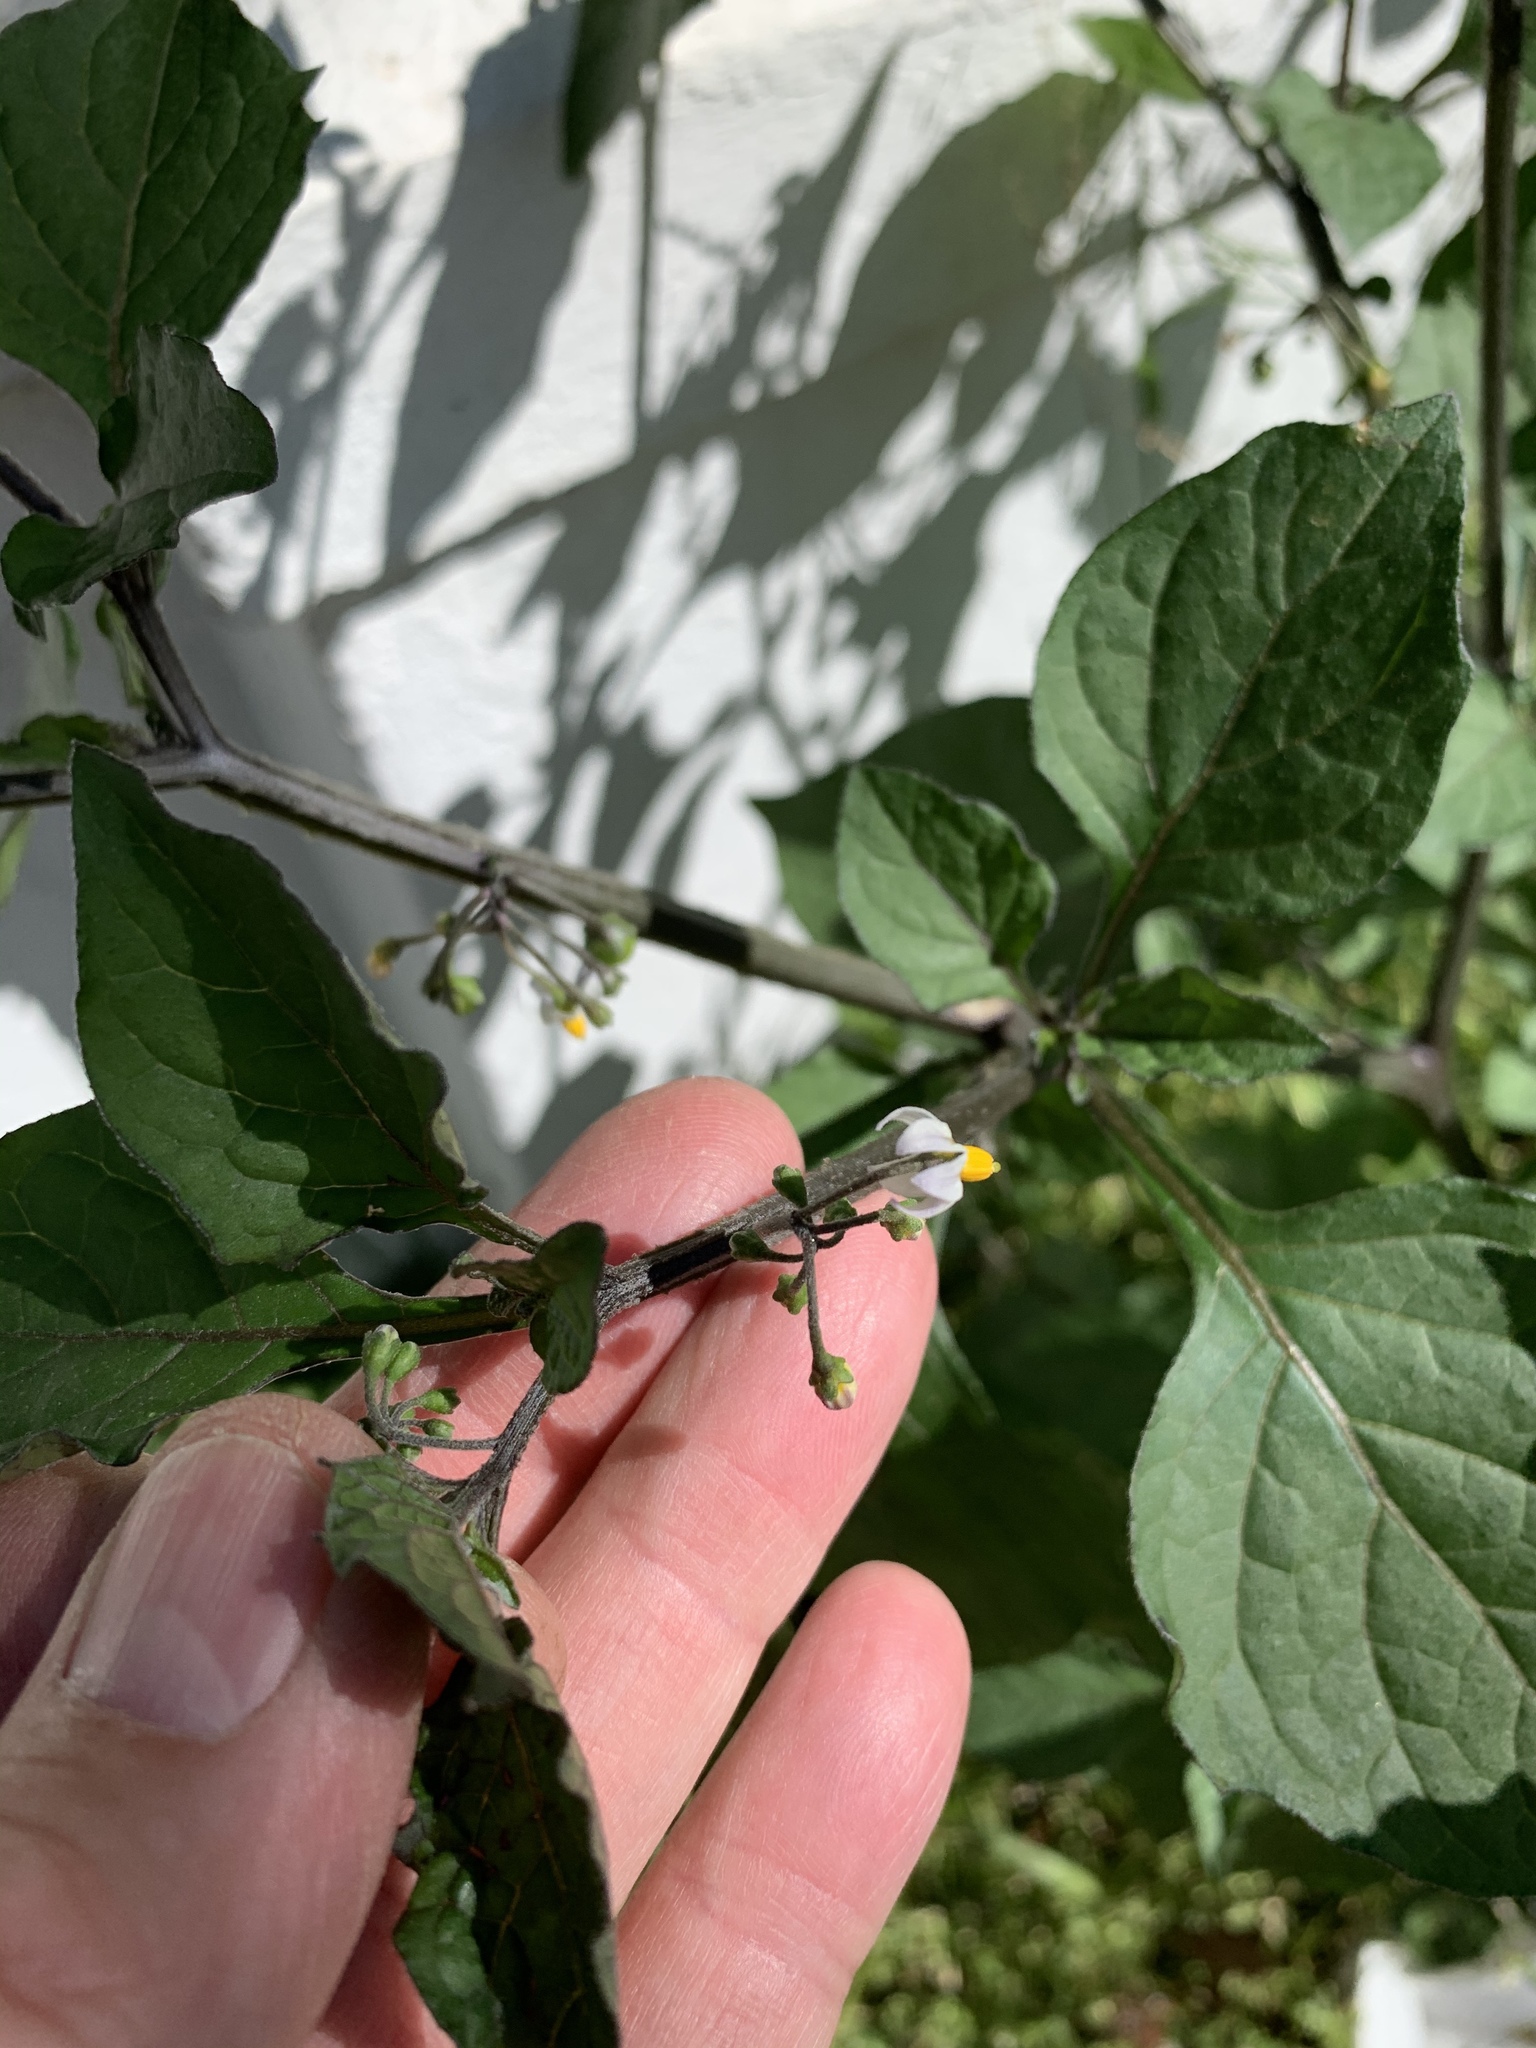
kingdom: Plantae
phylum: Tracheophyta
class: Magnoliopsida
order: Solanales
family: Solanaceae
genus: Solanum
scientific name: Solanum nigrum
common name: Black nightshade
